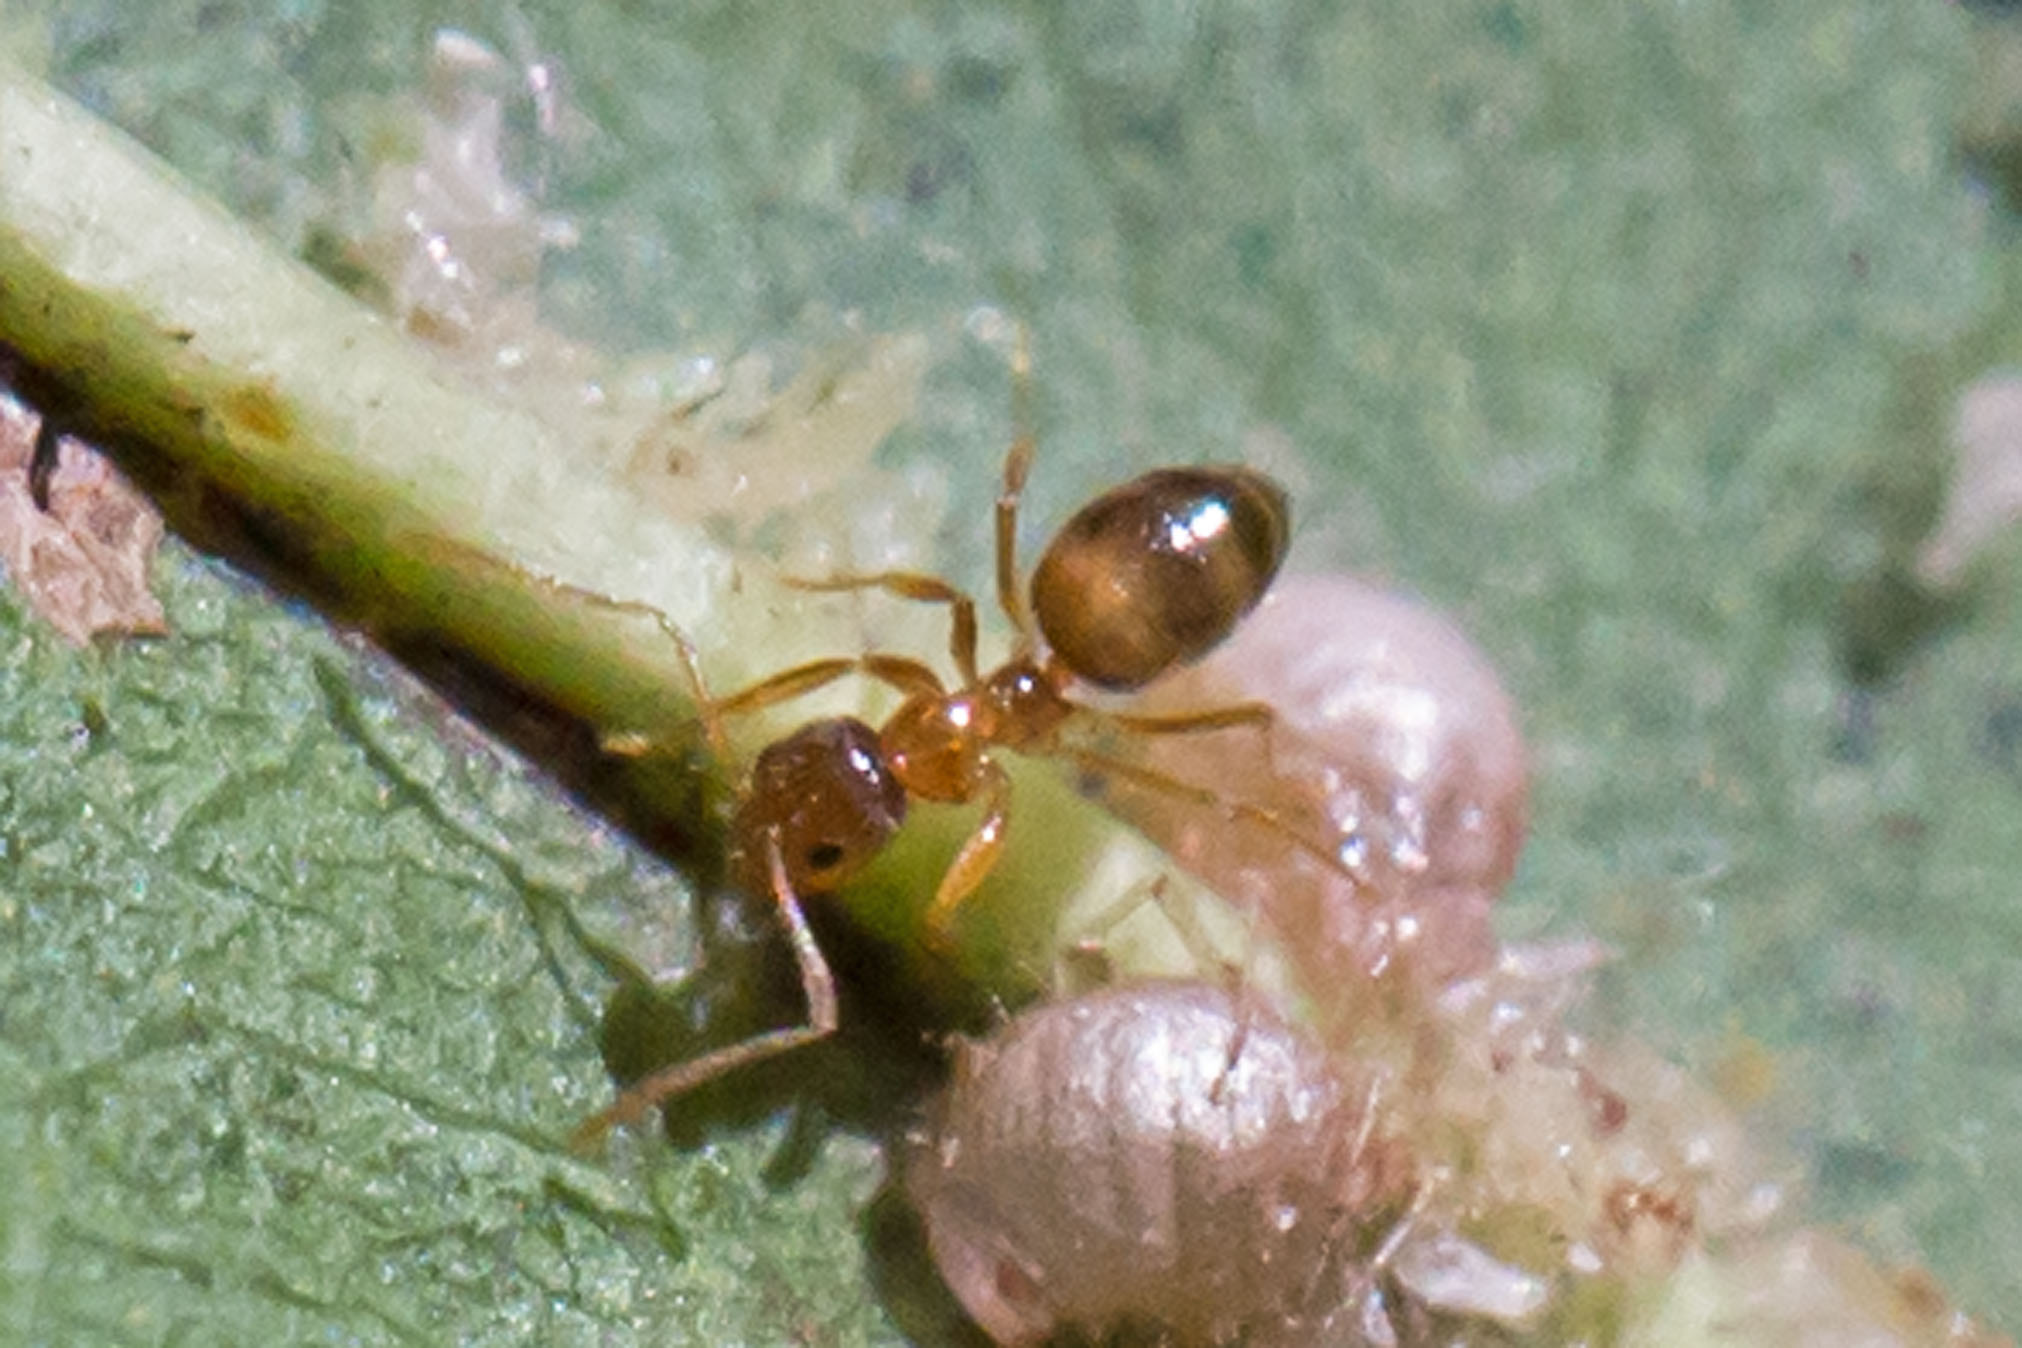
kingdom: Animalia
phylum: Arthropoda
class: Insecta
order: Hymenoptera
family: Formicidae
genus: Paratrechina
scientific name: Paratrechina flavipes
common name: Eastern asian formicine ant
